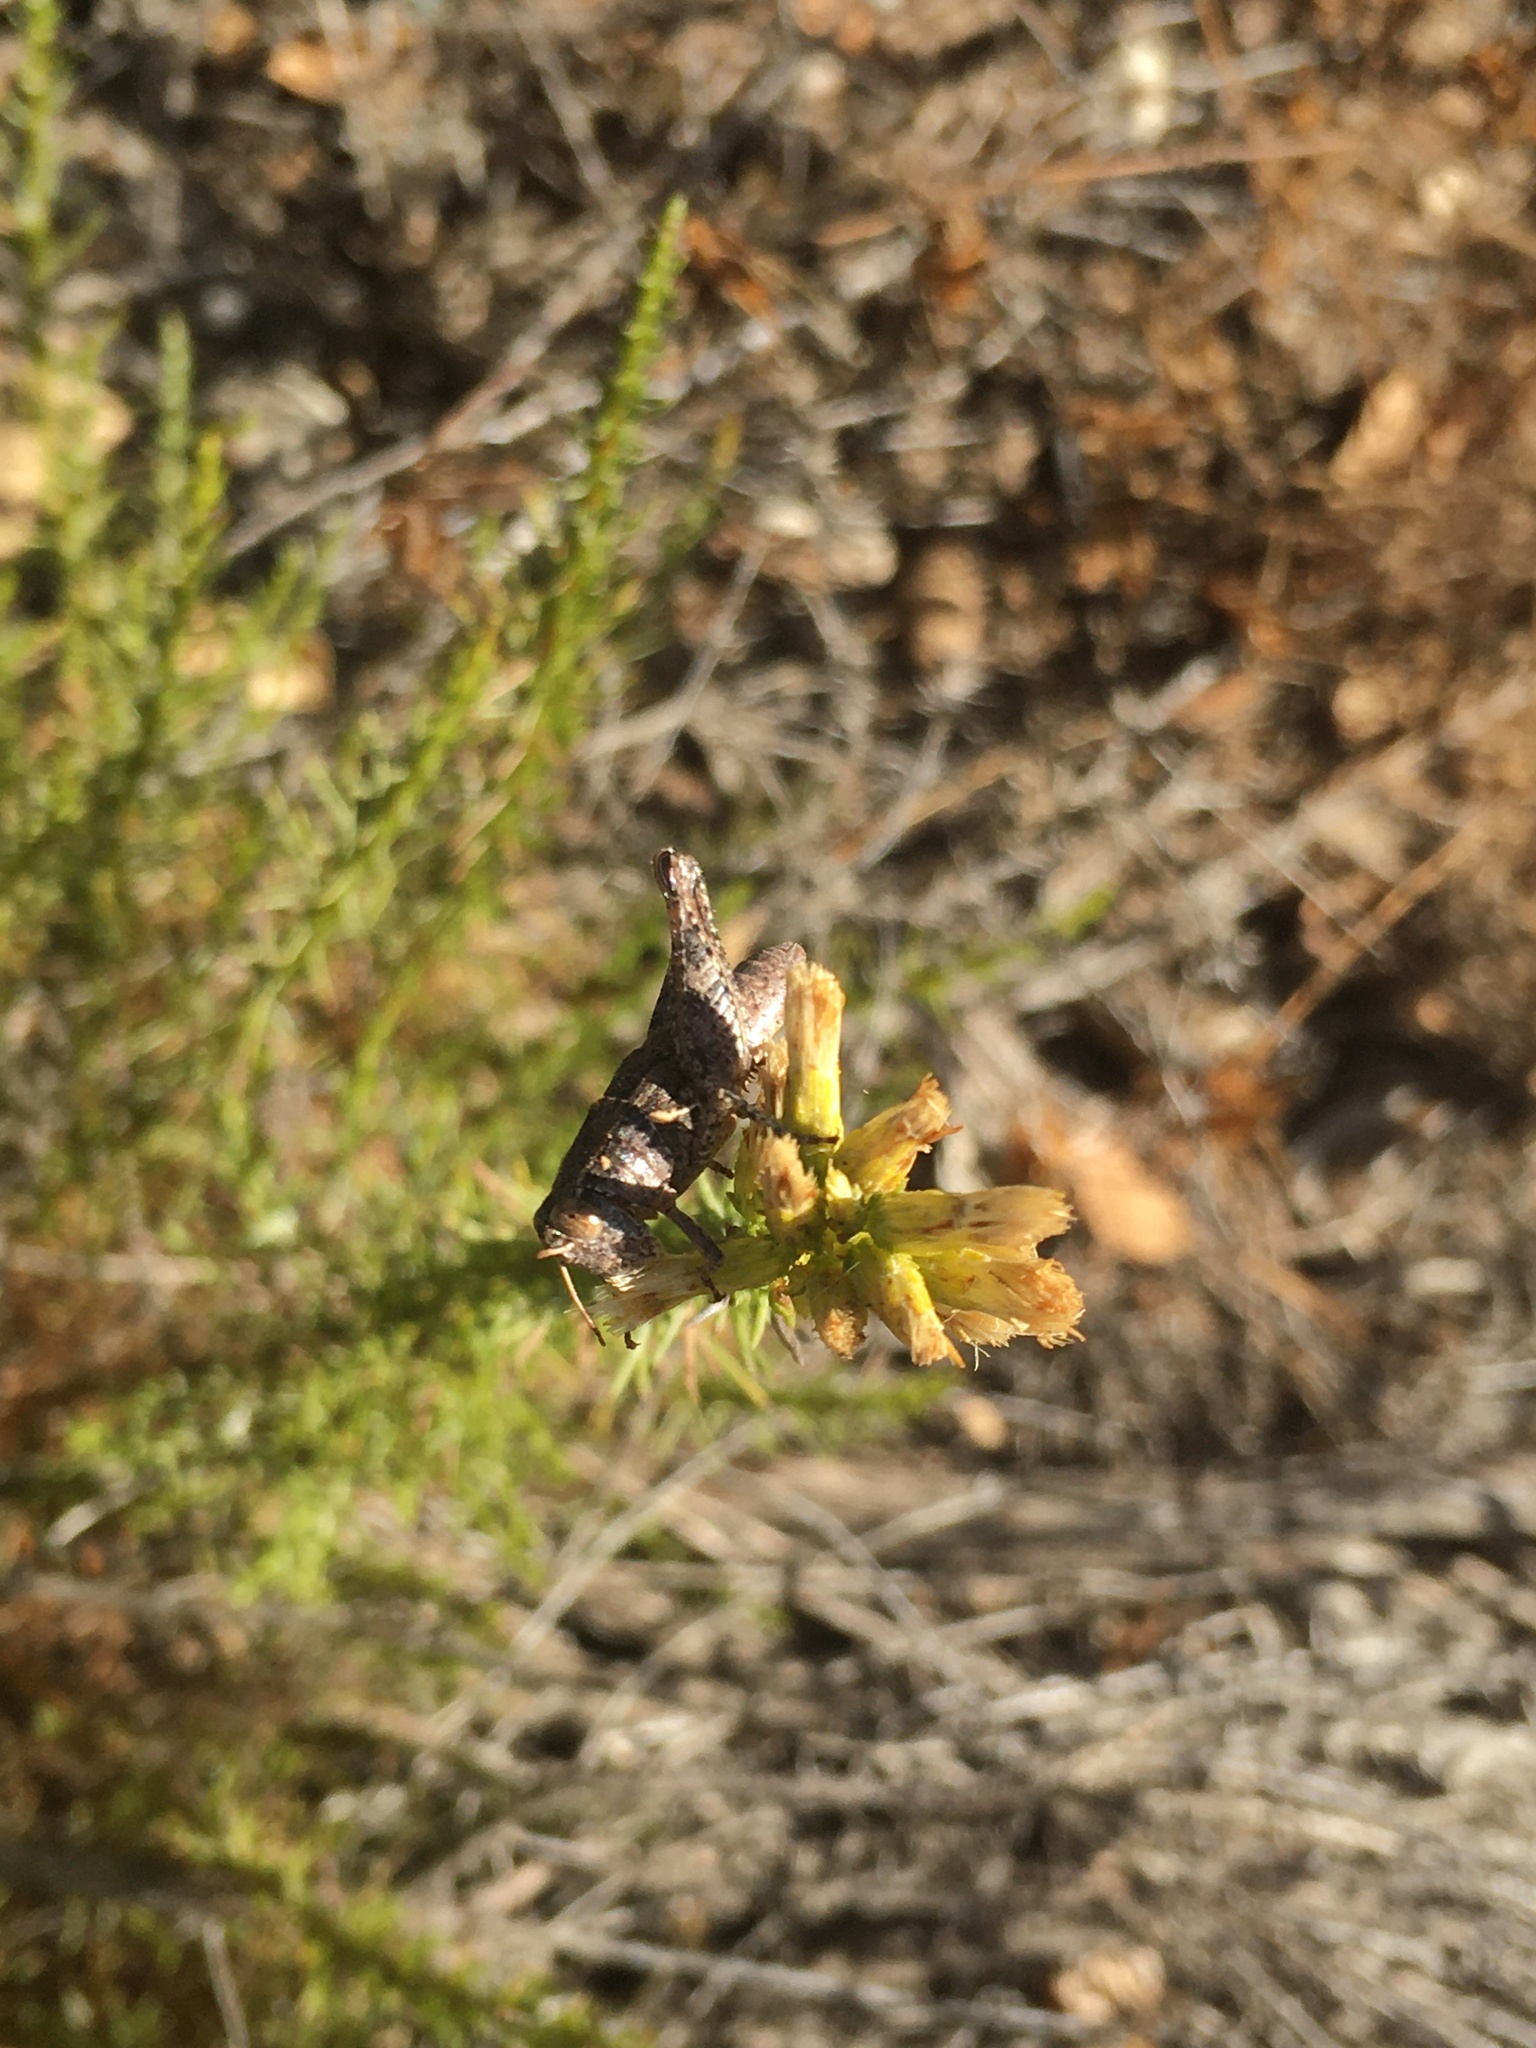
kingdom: Animalia
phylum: Arthropoda
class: Insecta
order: Orthoptera
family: Acrididae
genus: Oedaleonotus
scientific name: Oedaleonotus phryneicus
